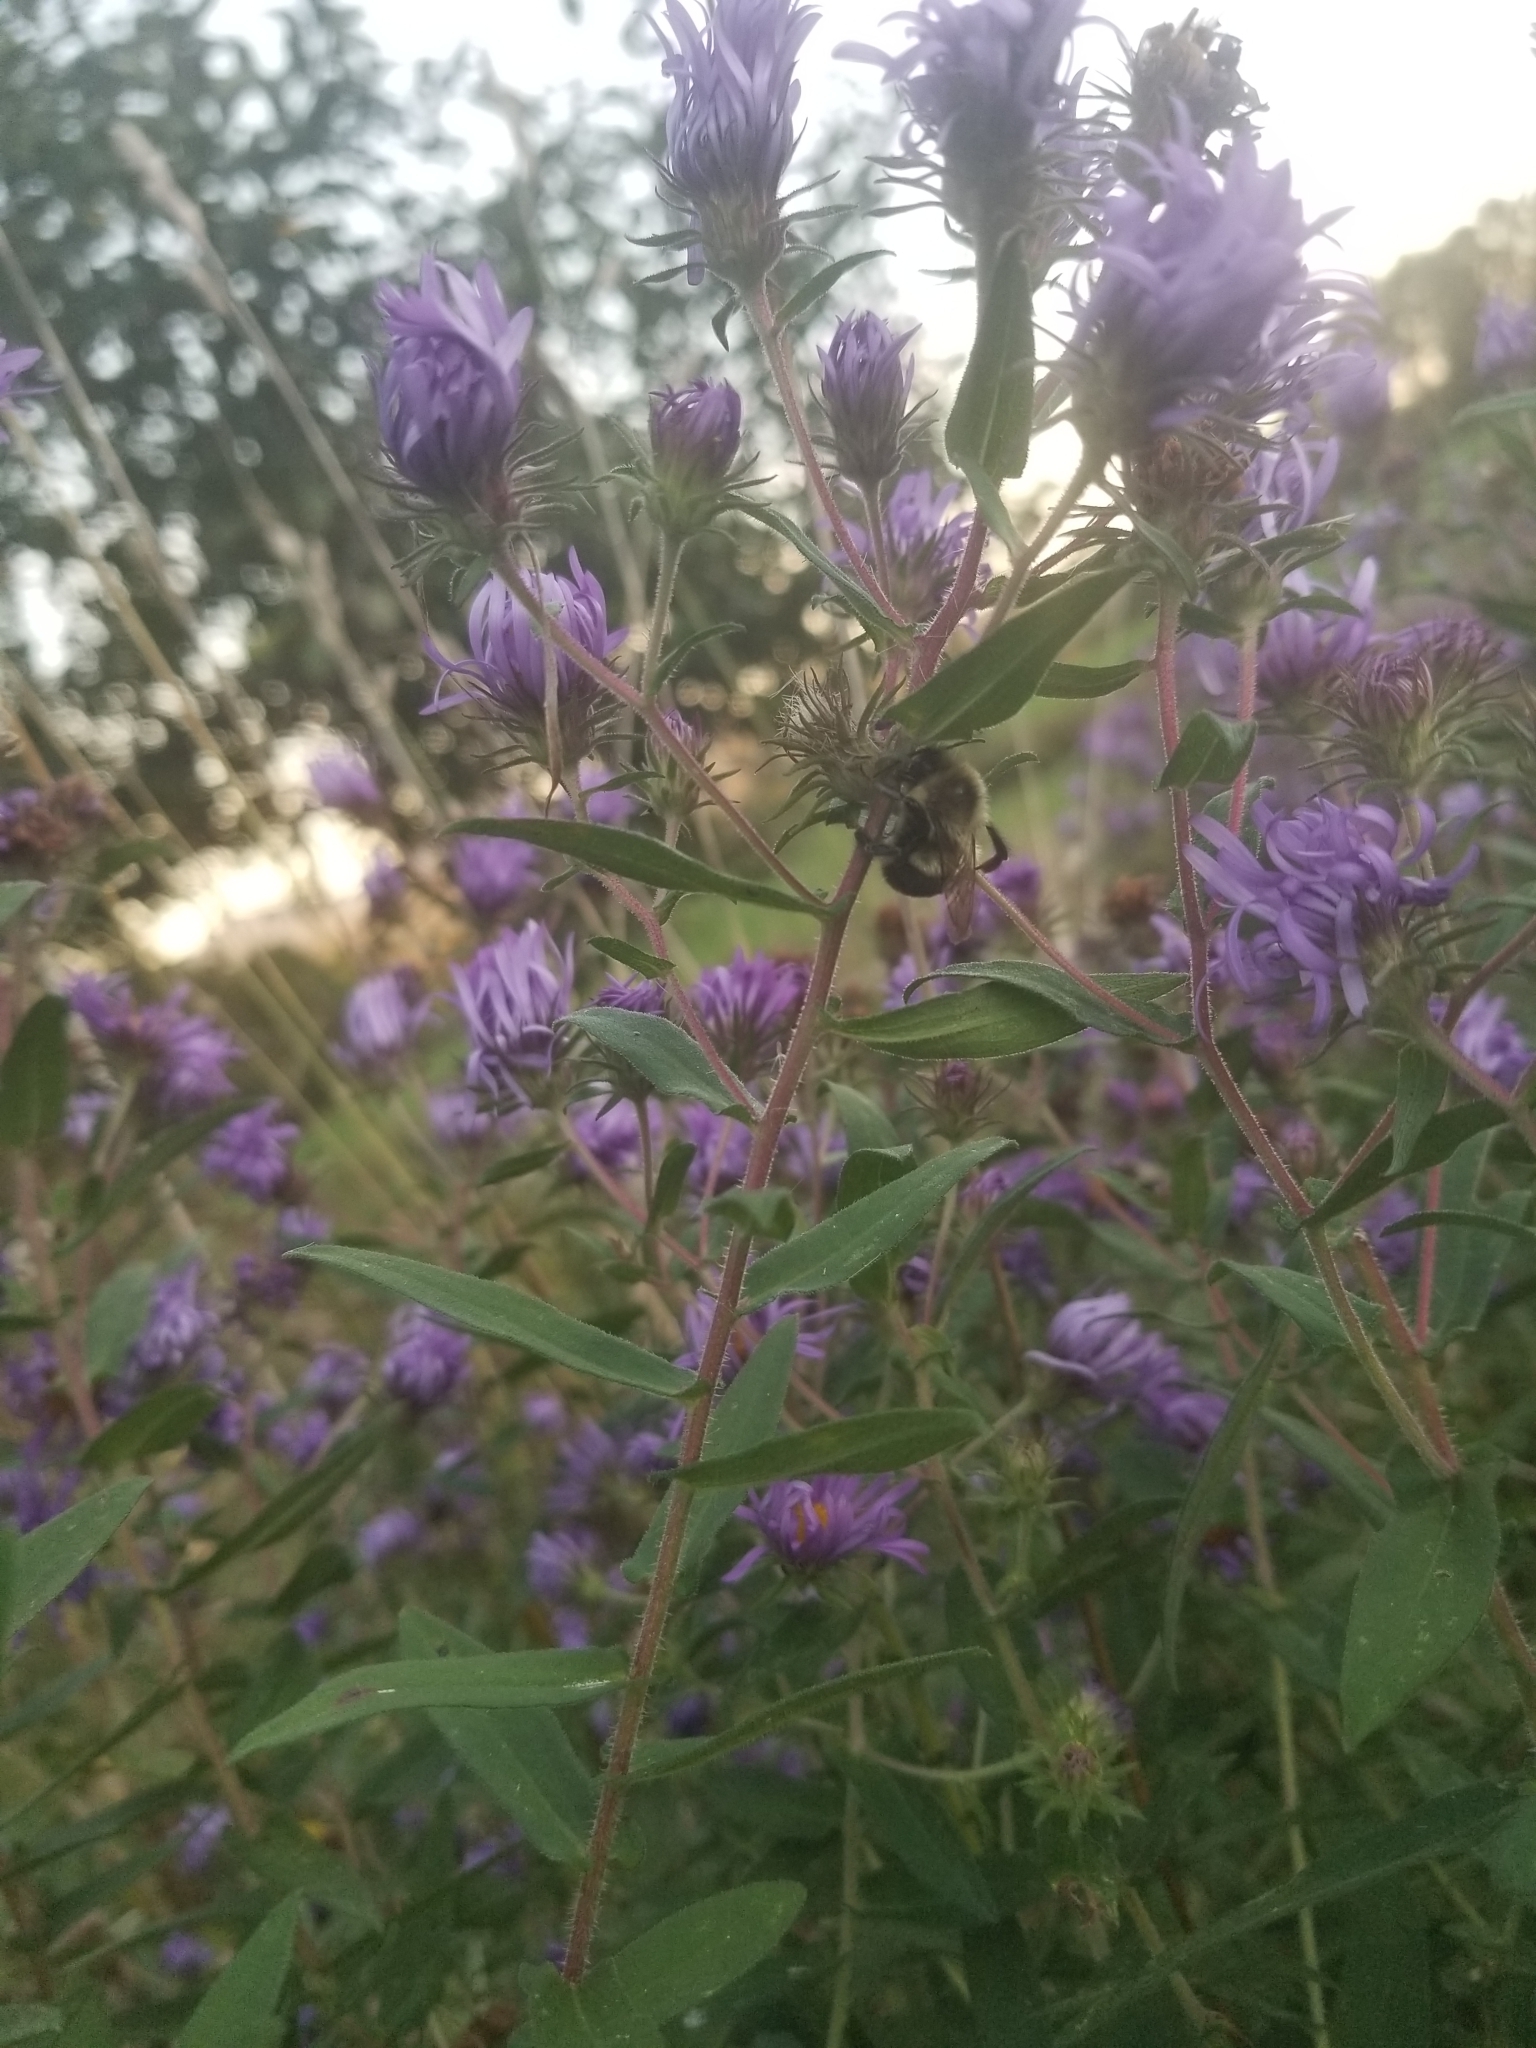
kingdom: Animalia
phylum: Arthropoda
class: Insecta
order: Hymenoptera
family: Apidae
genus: Bombus
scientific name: Bombus impatiens
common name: Common eastern bumble bee
